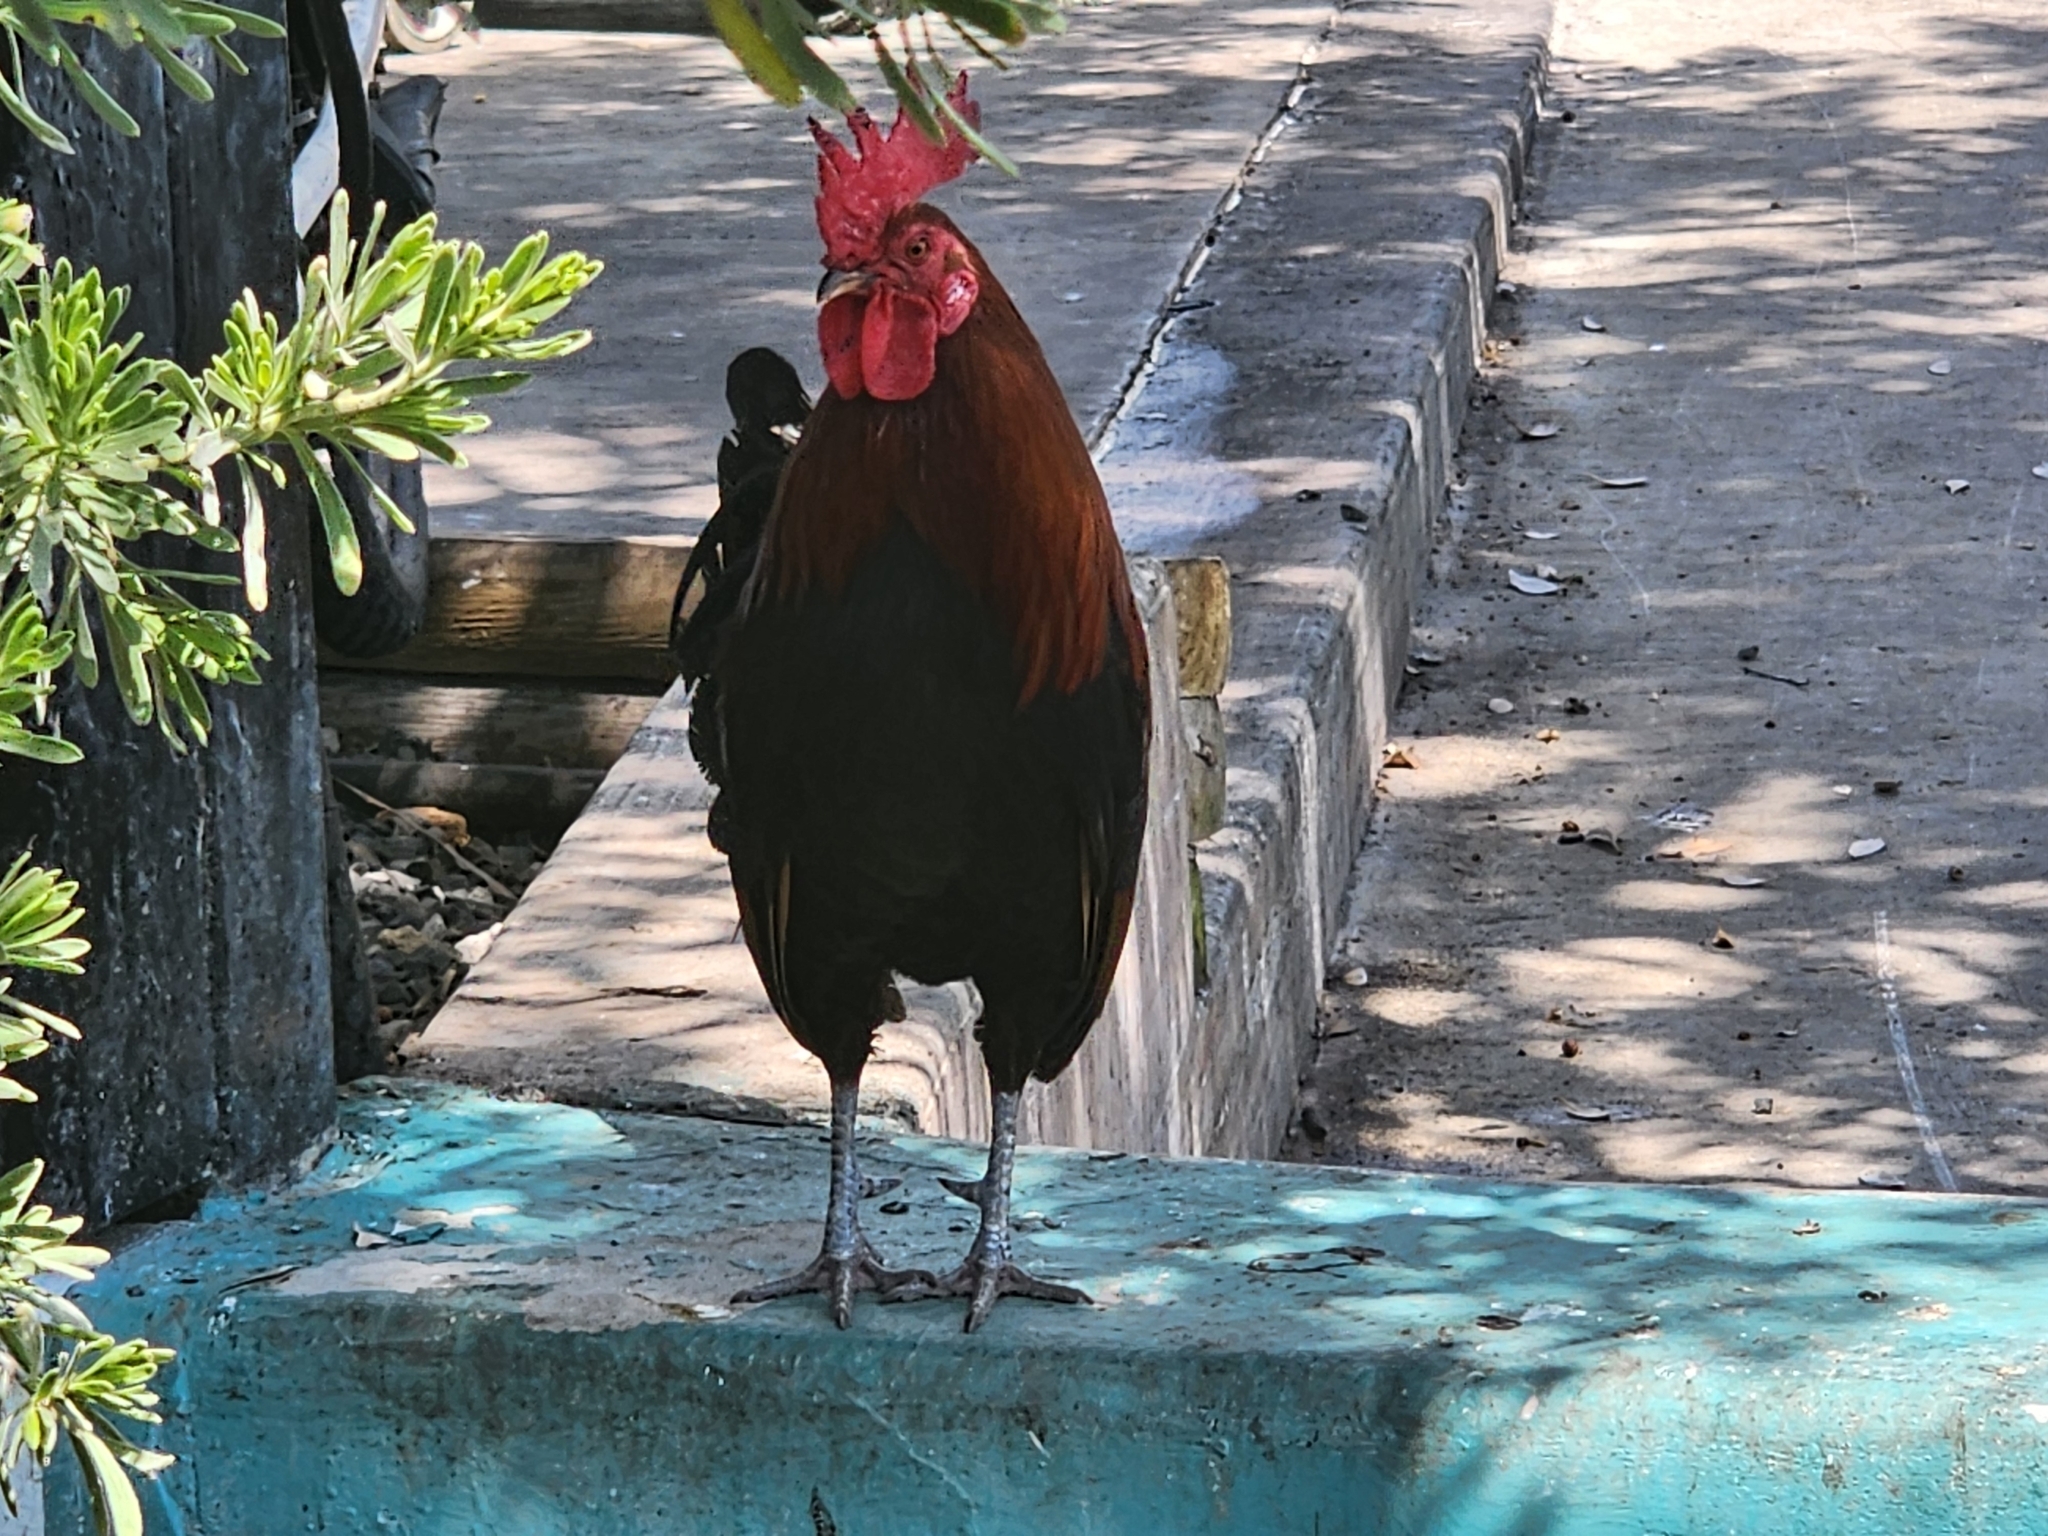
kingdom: Animalia
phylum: Chordata
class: Aves
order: Galliformes
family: Phasianidae
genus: Gallus
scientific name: Gallus gallus
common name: Red junglefowl
